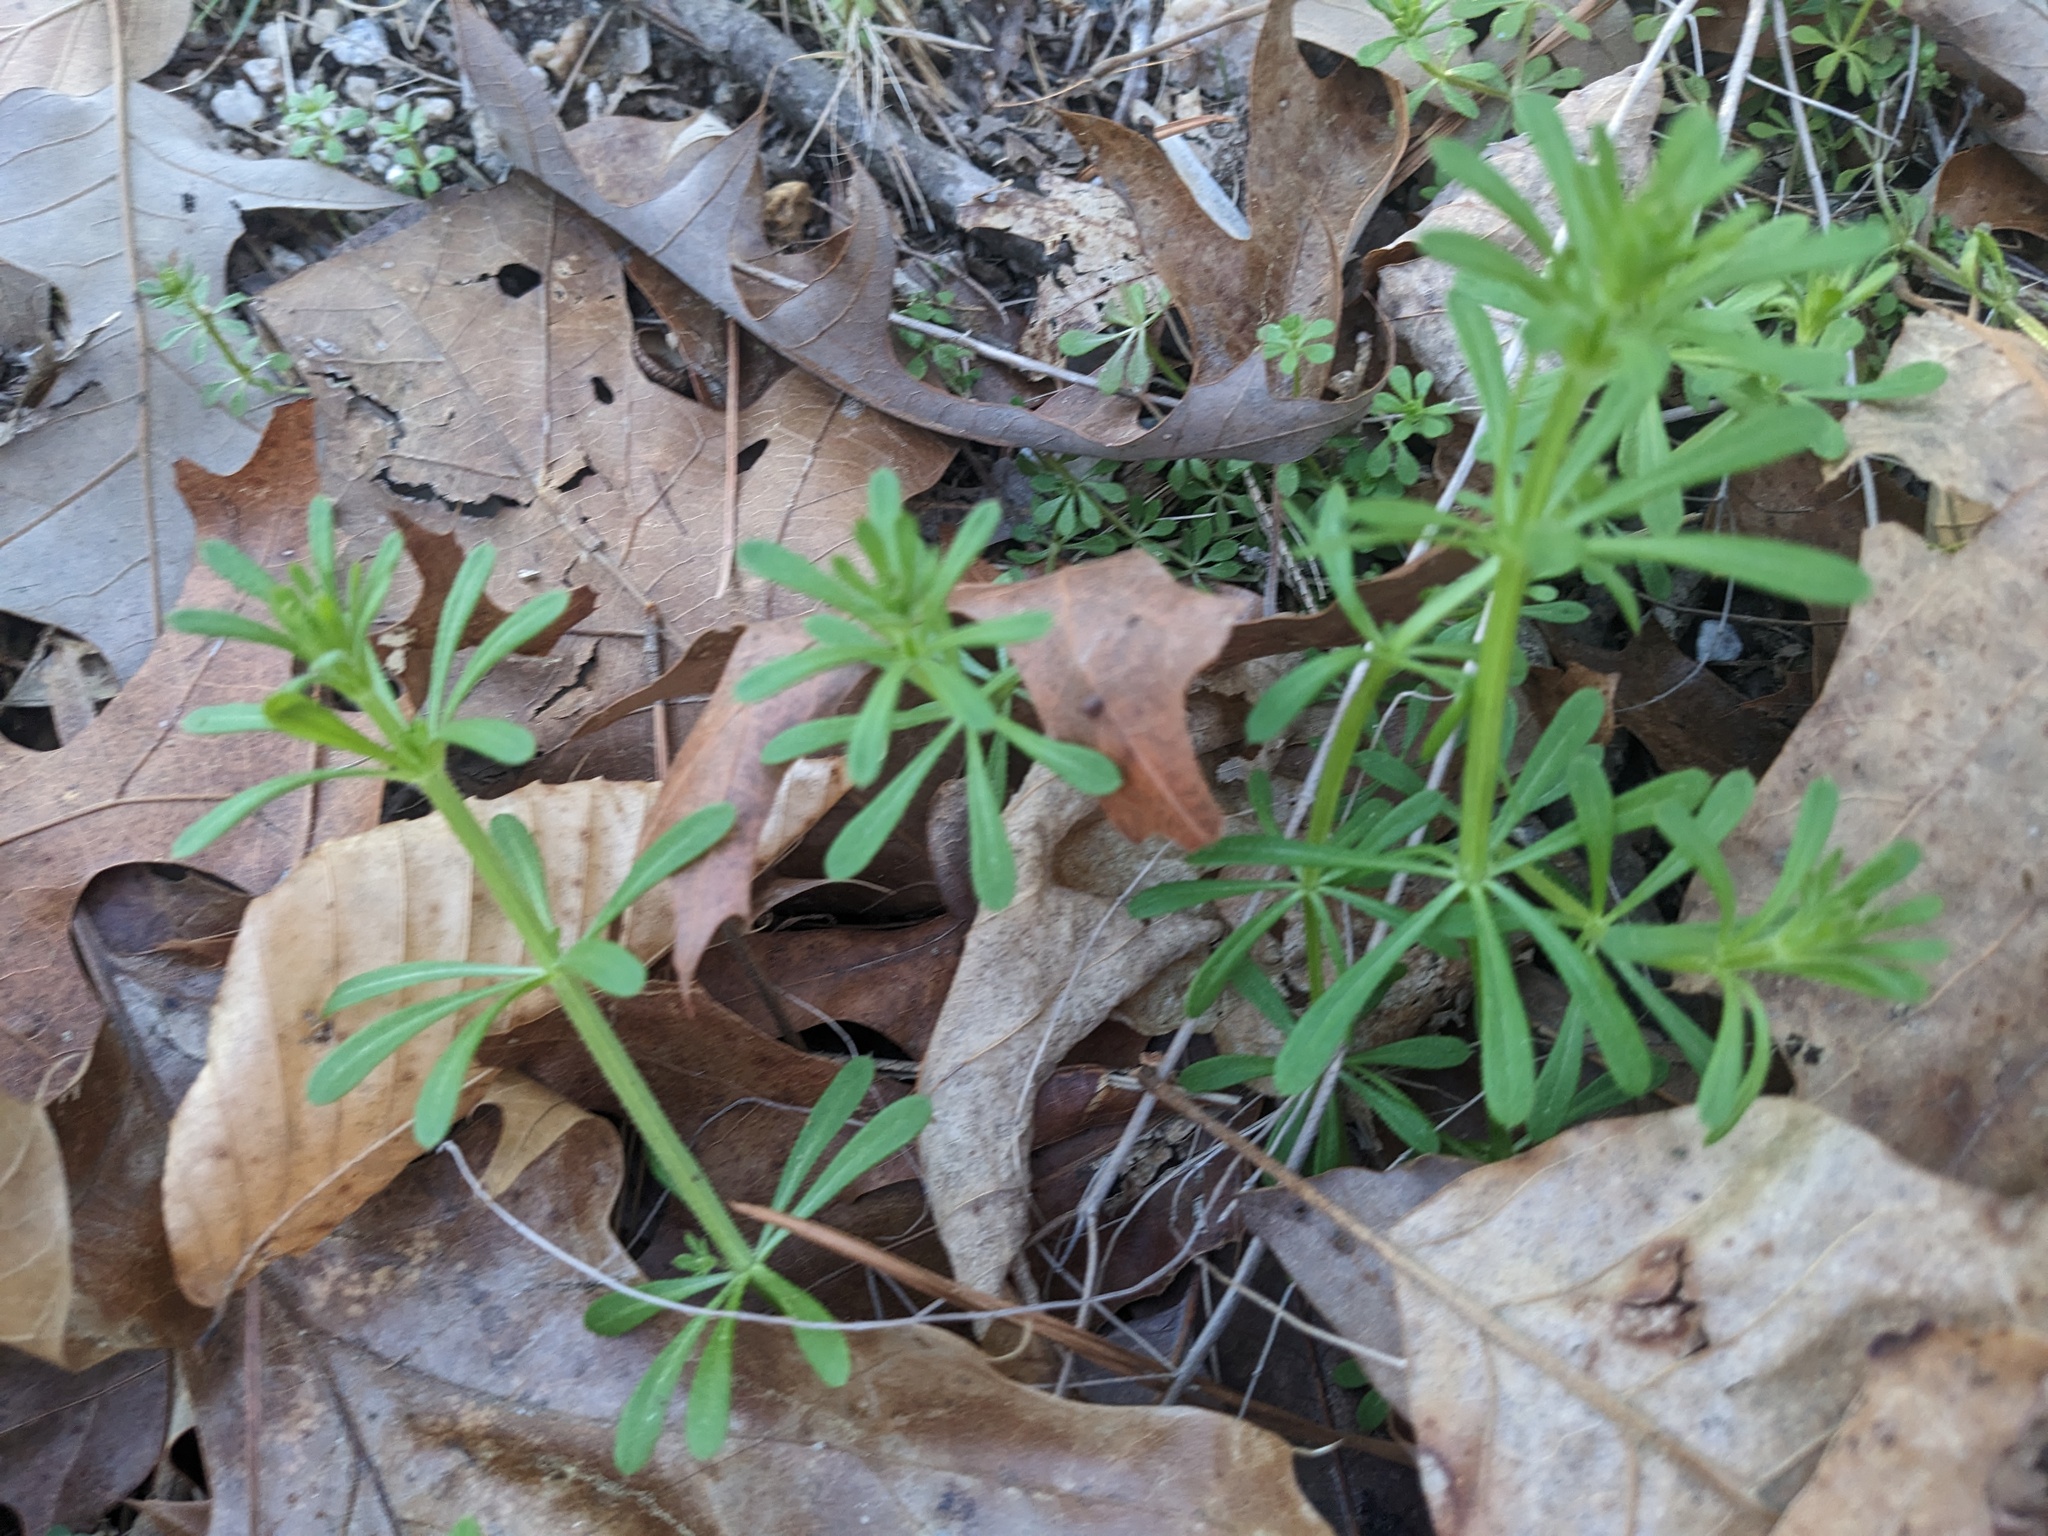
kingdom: Plantae
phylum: Tracheophyta
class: Magnoliopsida
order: Gentianales
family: Rubiaceae
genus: Galium
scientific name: Galium aparine
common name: Cleavers
